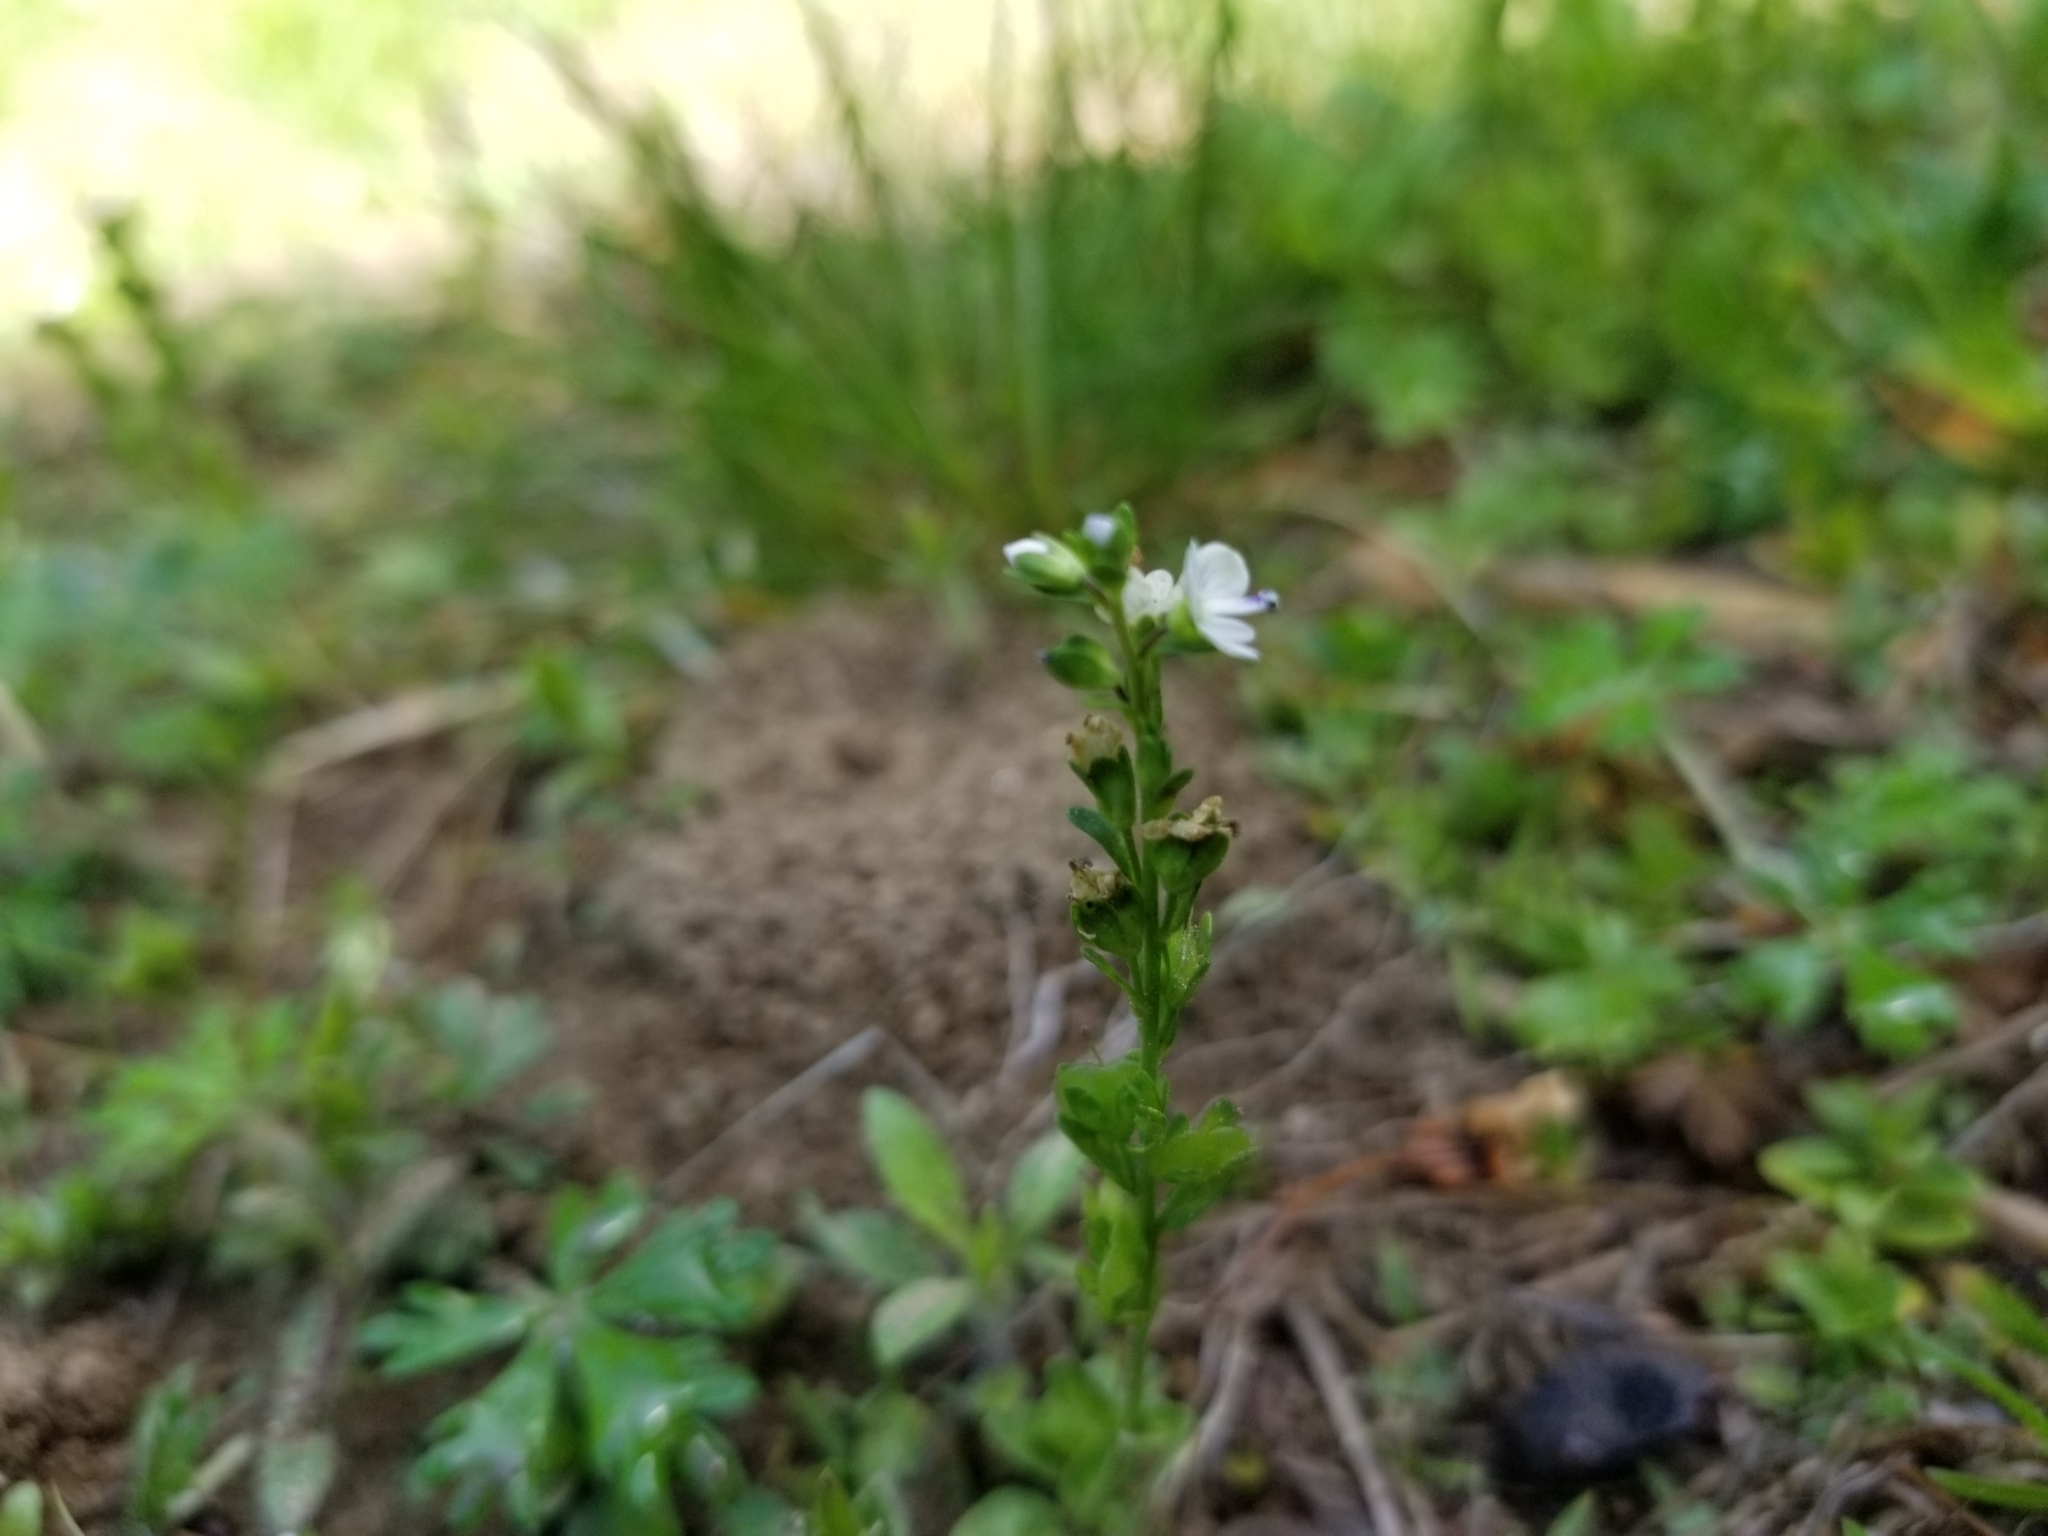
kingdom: Plantae
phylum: Tracheophyta
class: Magnoliopsida
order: Lamiales
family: Plantaginaceae
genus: Veronica
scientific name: Veronica serpyllifolia
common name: Thyme-leaved speedwell
